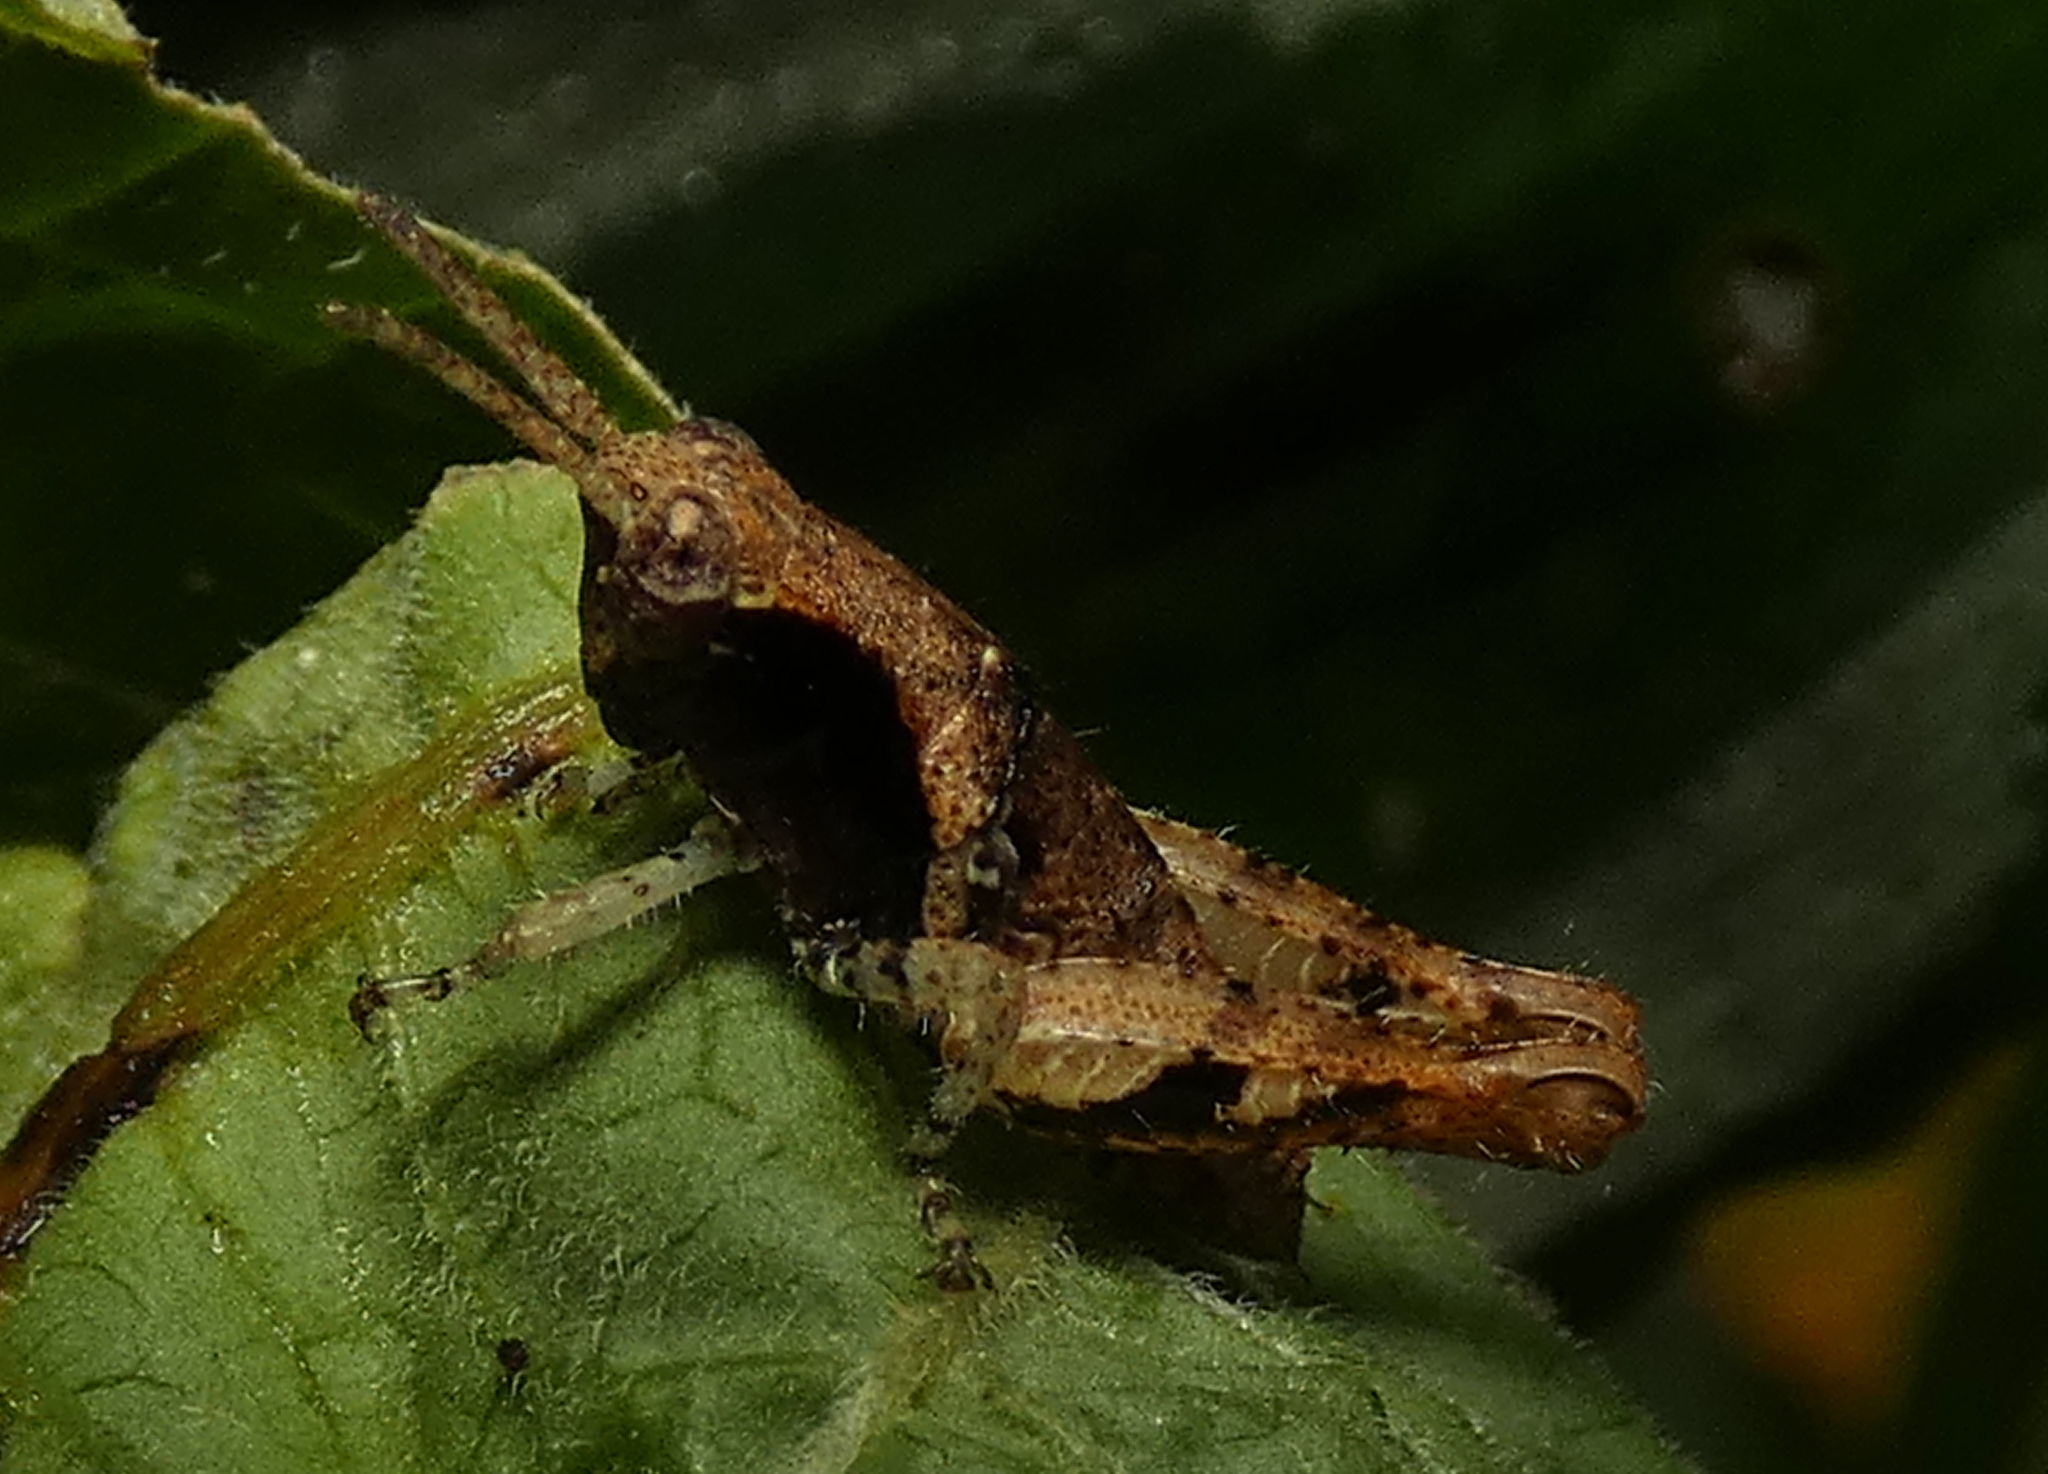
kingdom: Animalia
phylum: Arthropoda
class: Insecta
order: Orthoptera
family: Acrididae
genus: Eujivarus
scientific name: Eujivarus meridionalis
